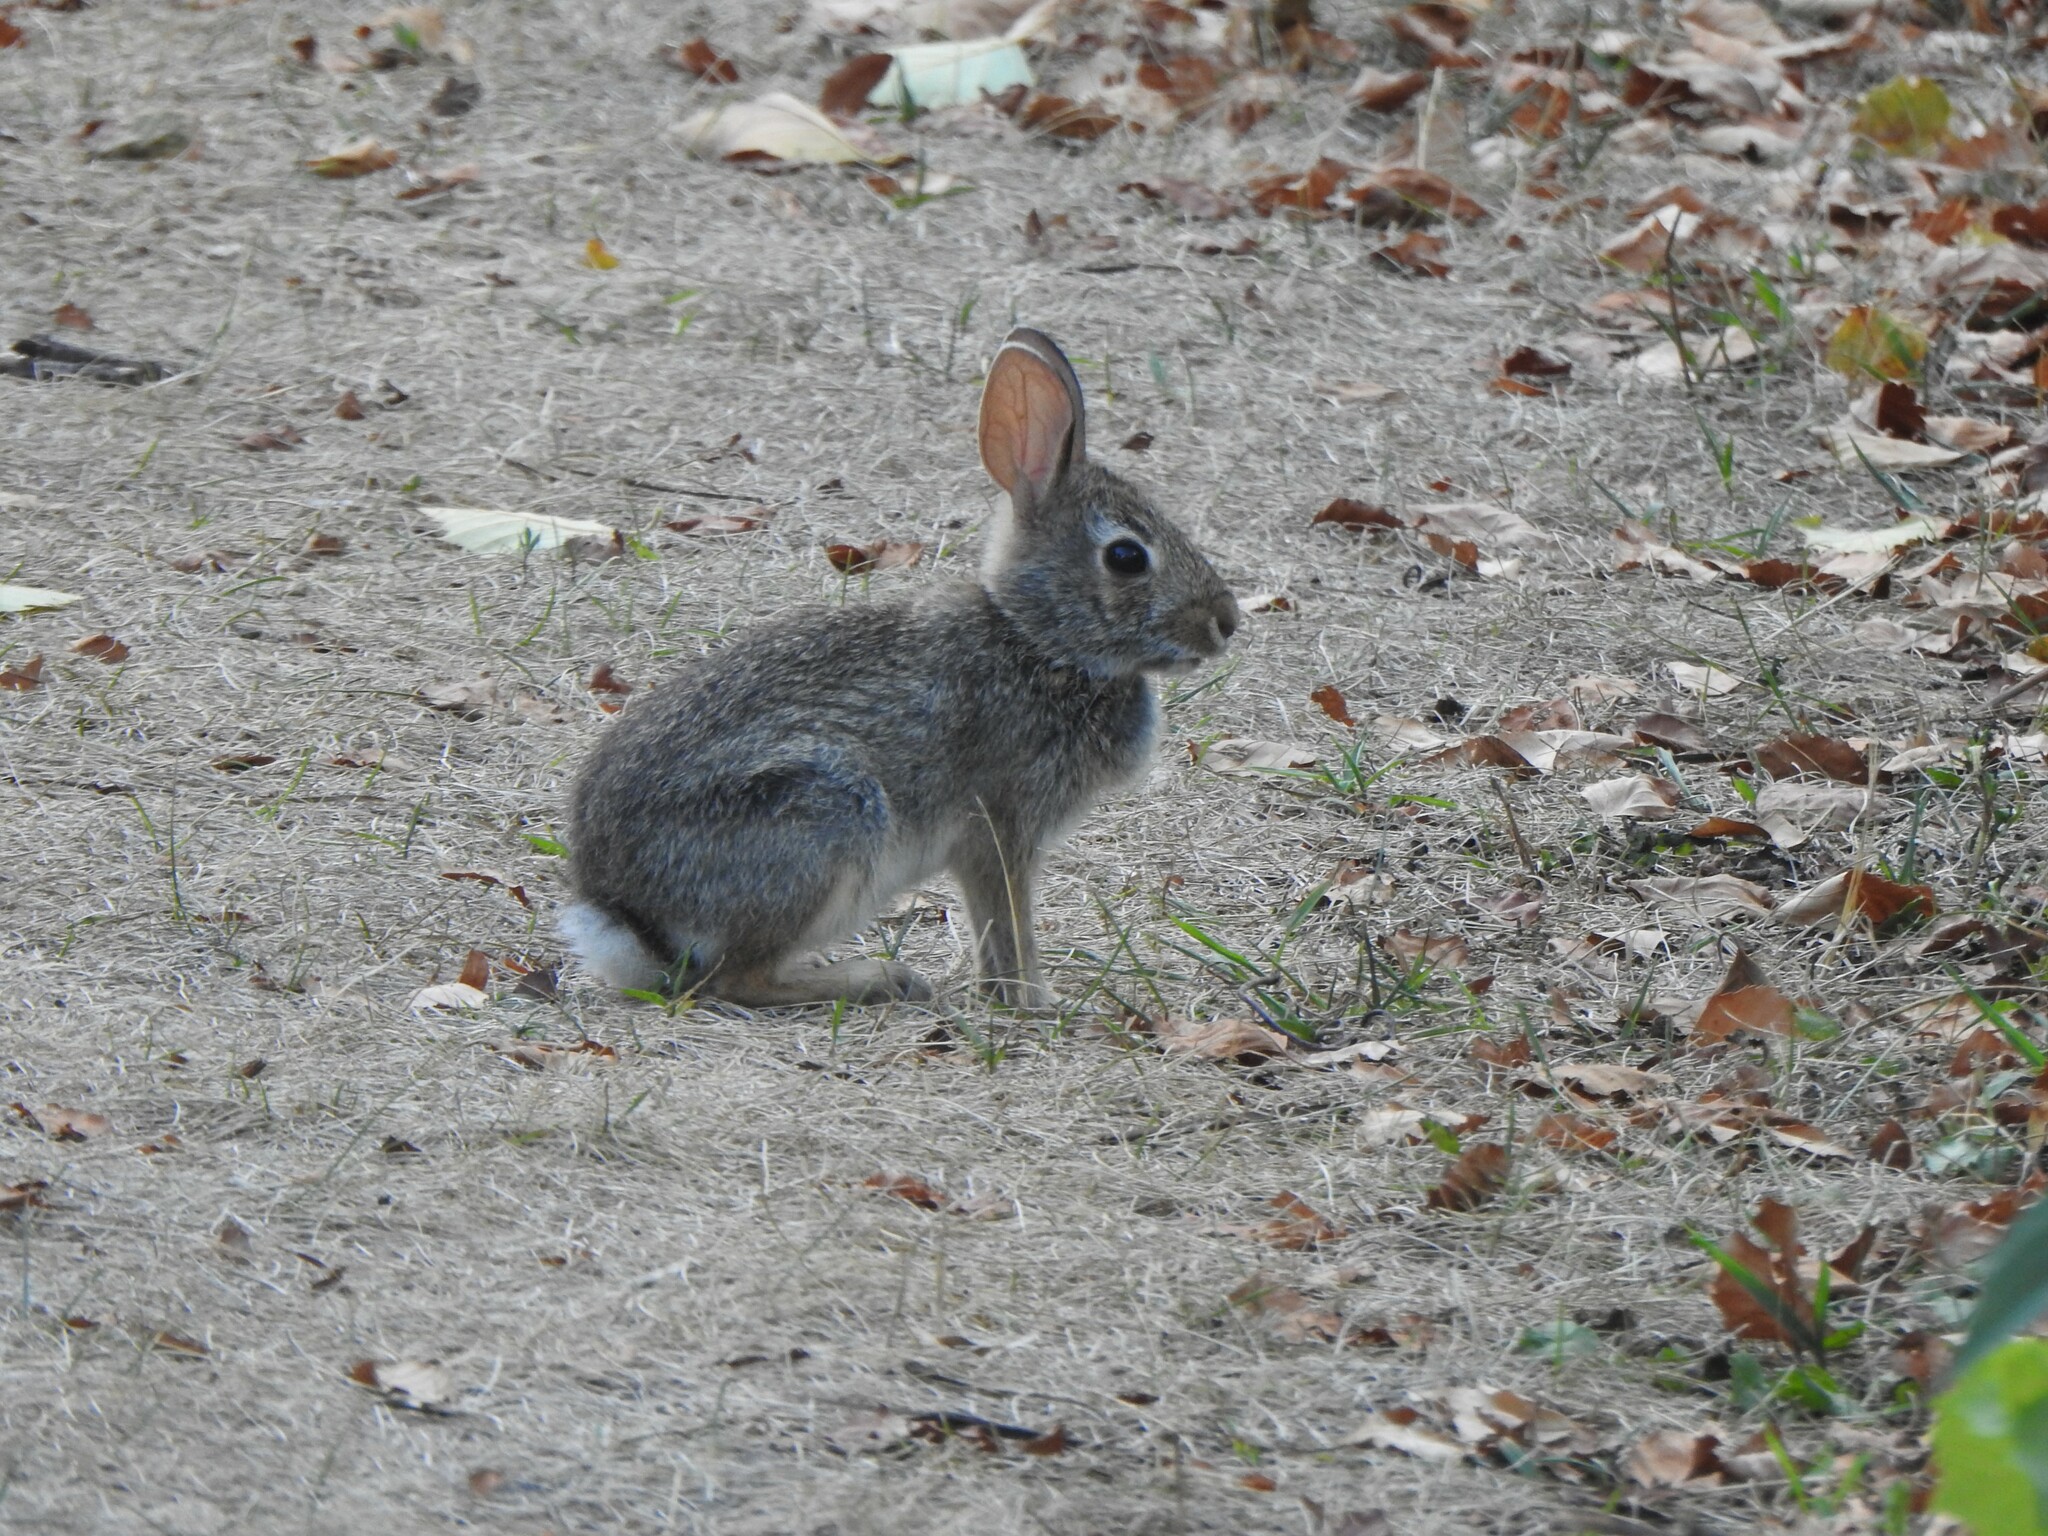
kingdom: Animalia
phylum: Chordata
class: Mammalia
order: Lagomorpha
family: Leporidae
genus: Sylvilagus
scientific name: Sylvilagus floridanus
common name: Eastern cottontail
